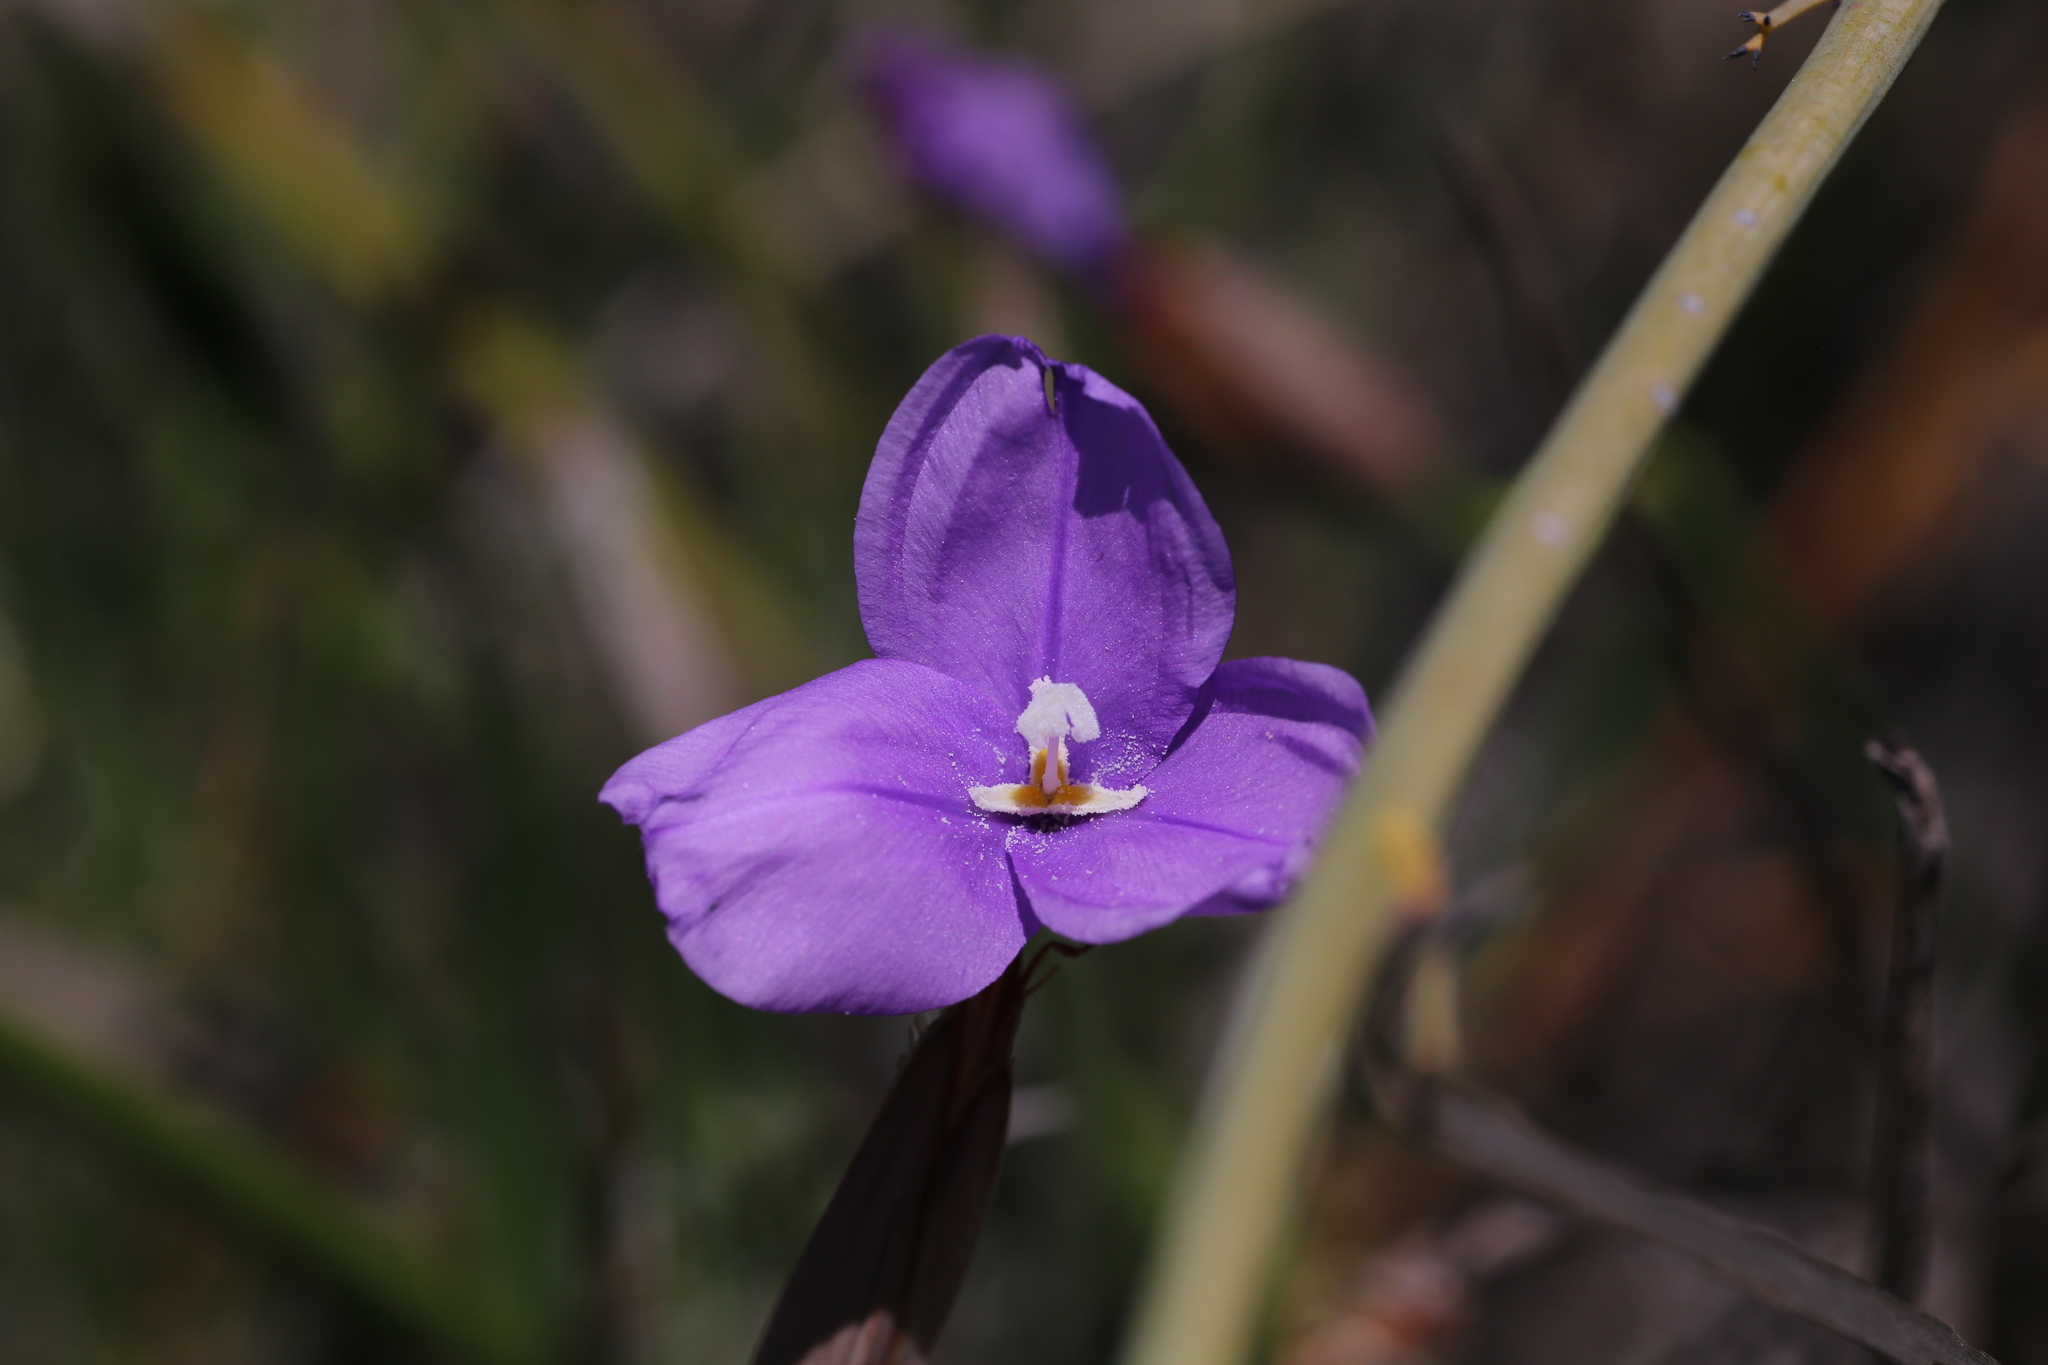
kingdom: Plantae
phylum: Tracheophyta
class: Liliopsida
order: Asparagales
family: Iridaceae
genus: Patersonia
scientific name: Patersonia occidentalis
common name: Long purple-flag
